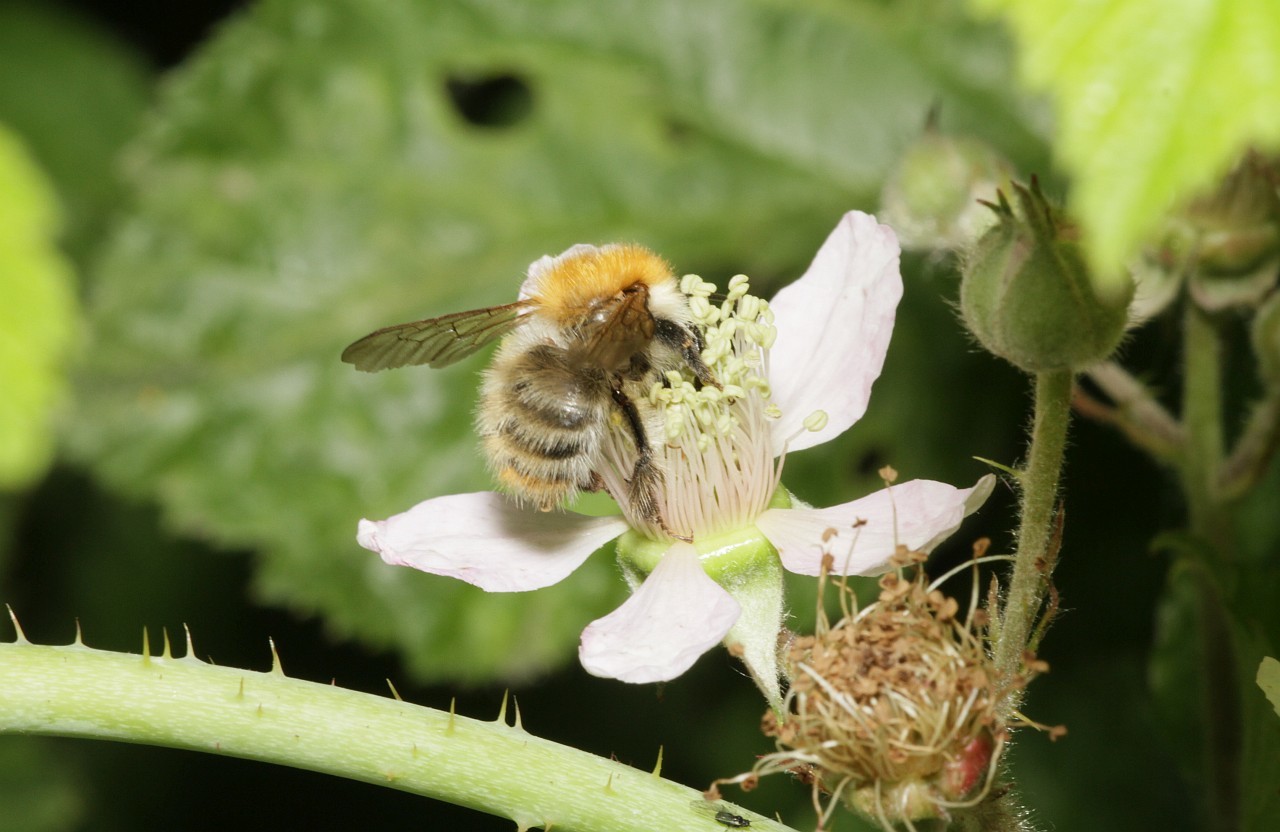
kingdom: Animalia
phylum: Arthropoda
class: Insecta
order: Hymenoptera
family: Apidae
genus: Bombus
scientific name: Bombus pascuorum
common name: Common carder bee
